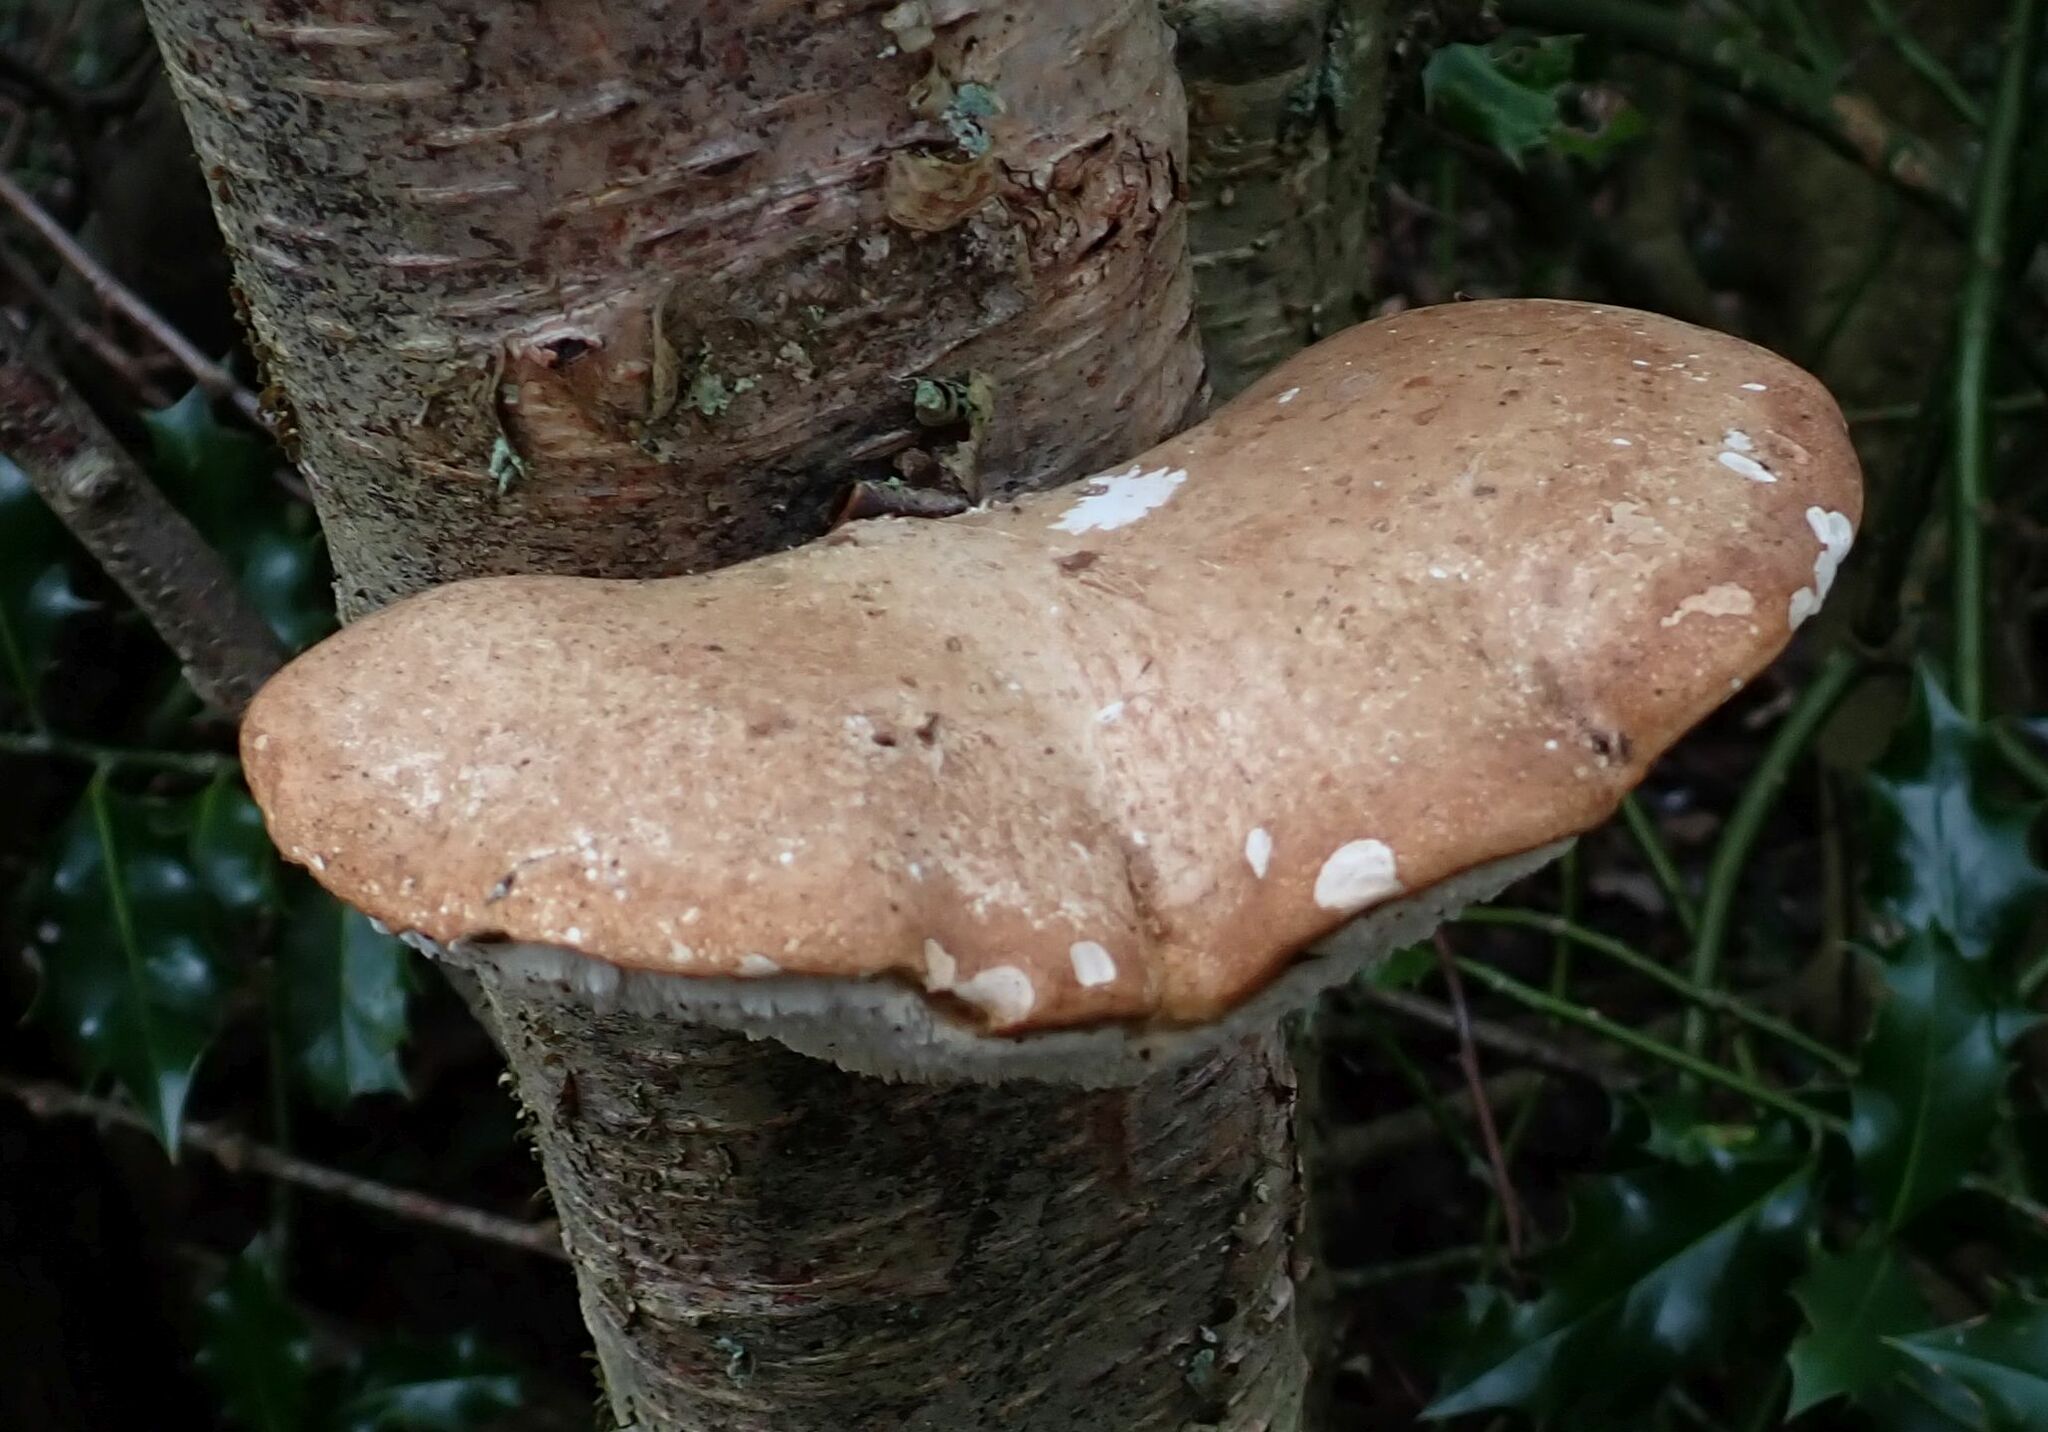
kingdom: Fungi
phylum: Basidiomycota
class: Agaricomycetes
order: Polyporales
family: Fomitopsidaceae
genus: Fomitopsis
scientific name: Fomitopsis betulina
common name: Birch polypore
